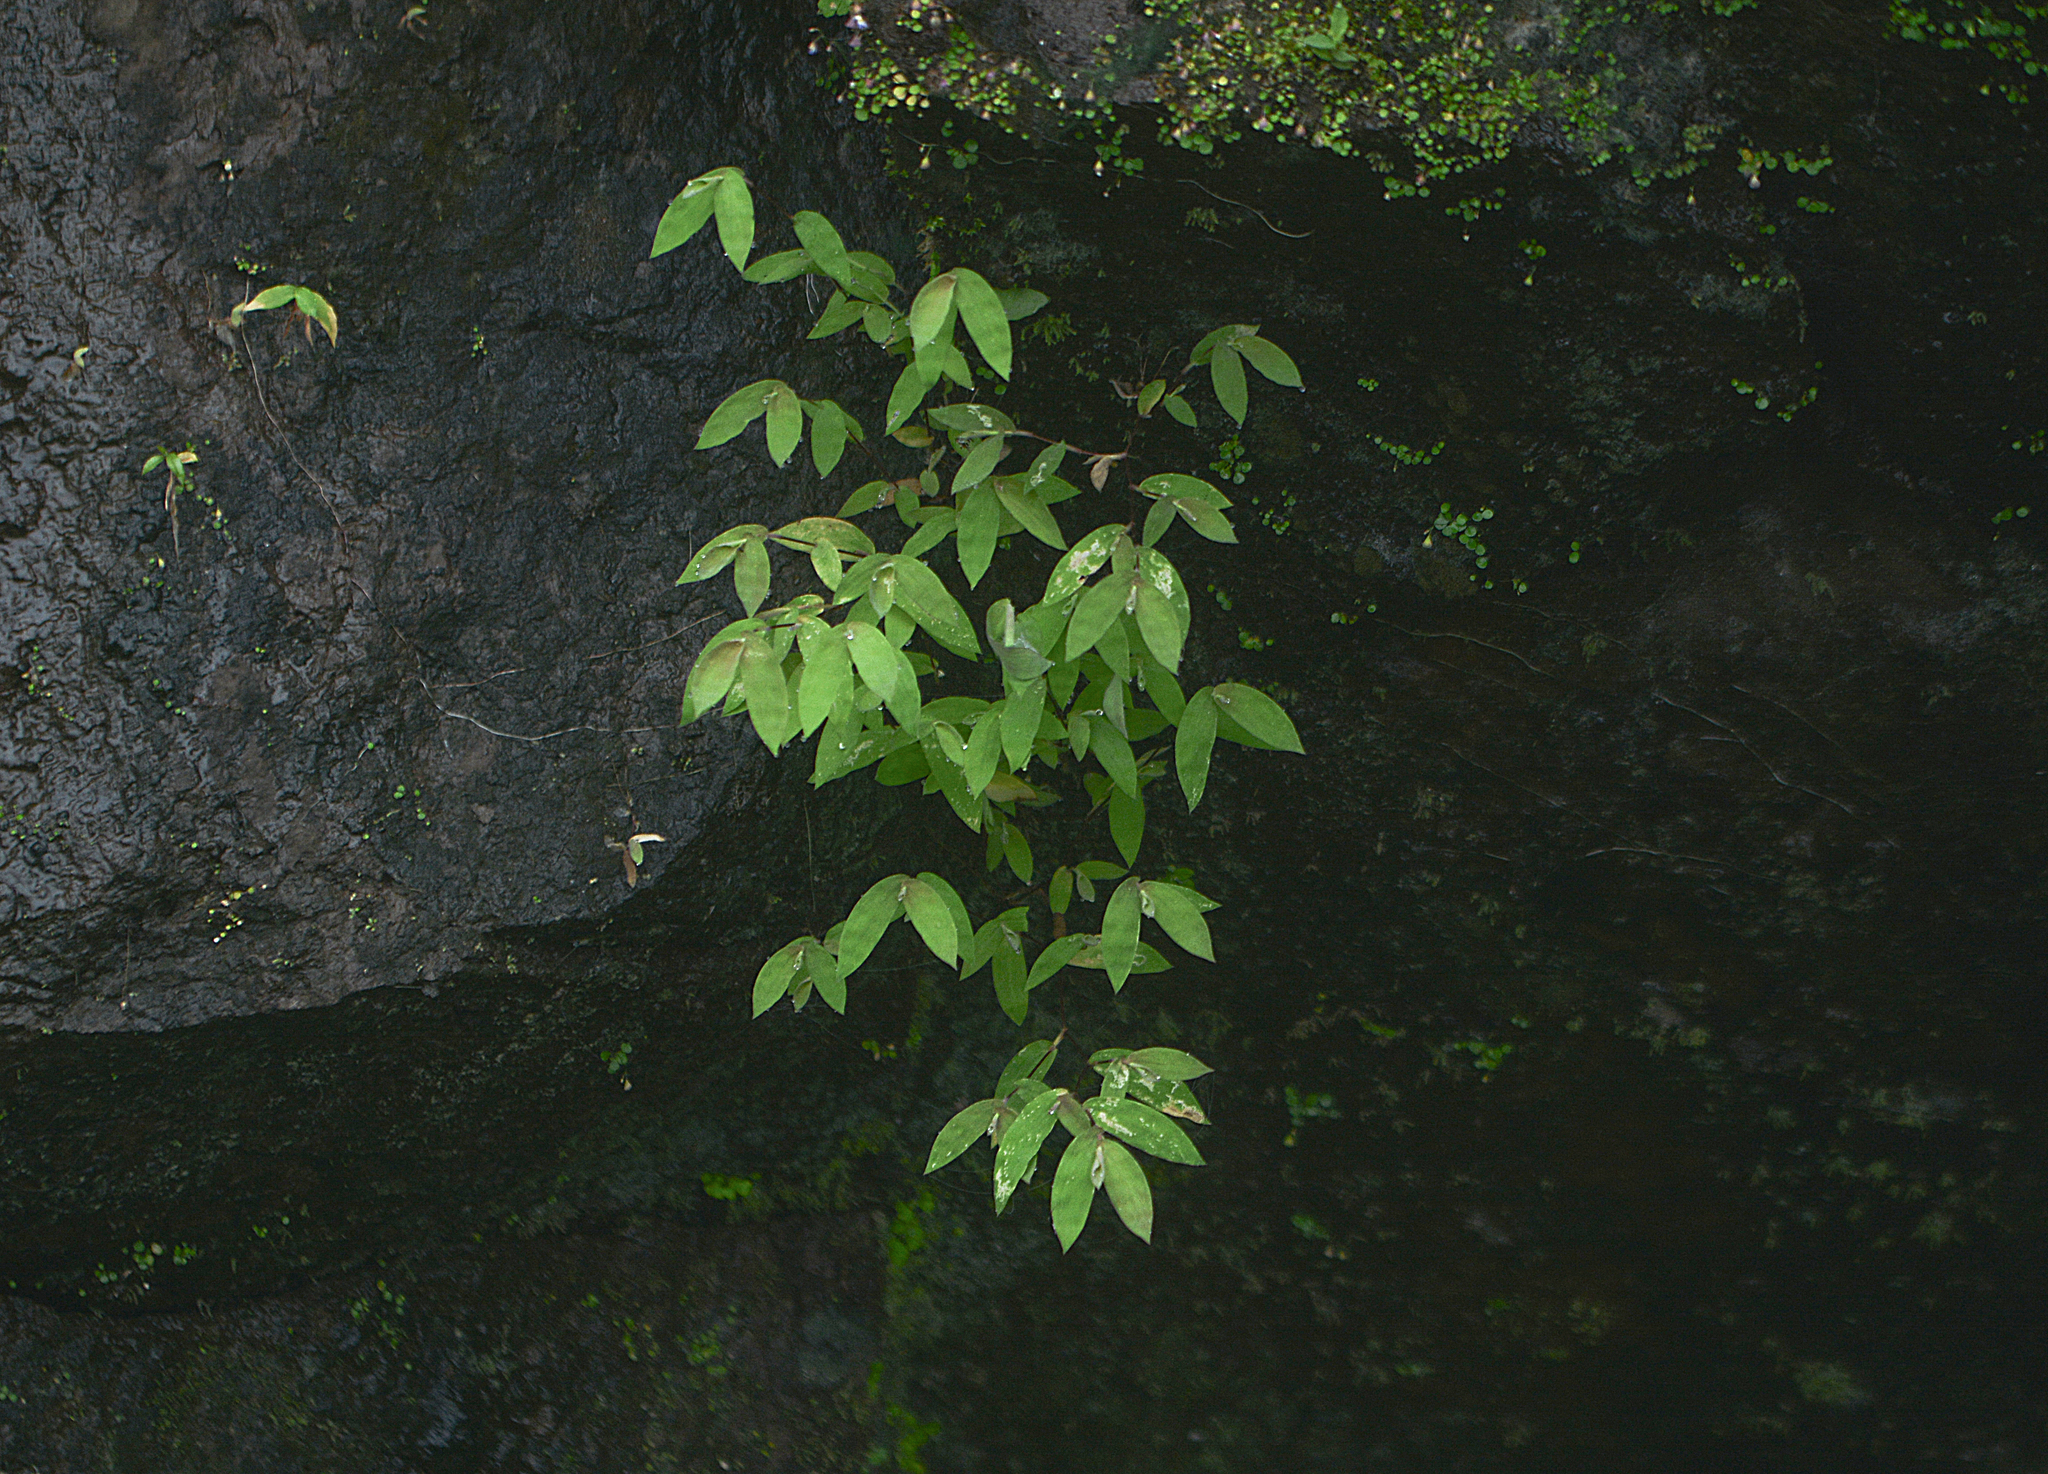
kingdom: Plantae
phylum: Tracheophyta
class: Liliopsida
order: Poales
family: Poaceae
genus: Arthraxon
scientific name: Arthraxon jubatus
